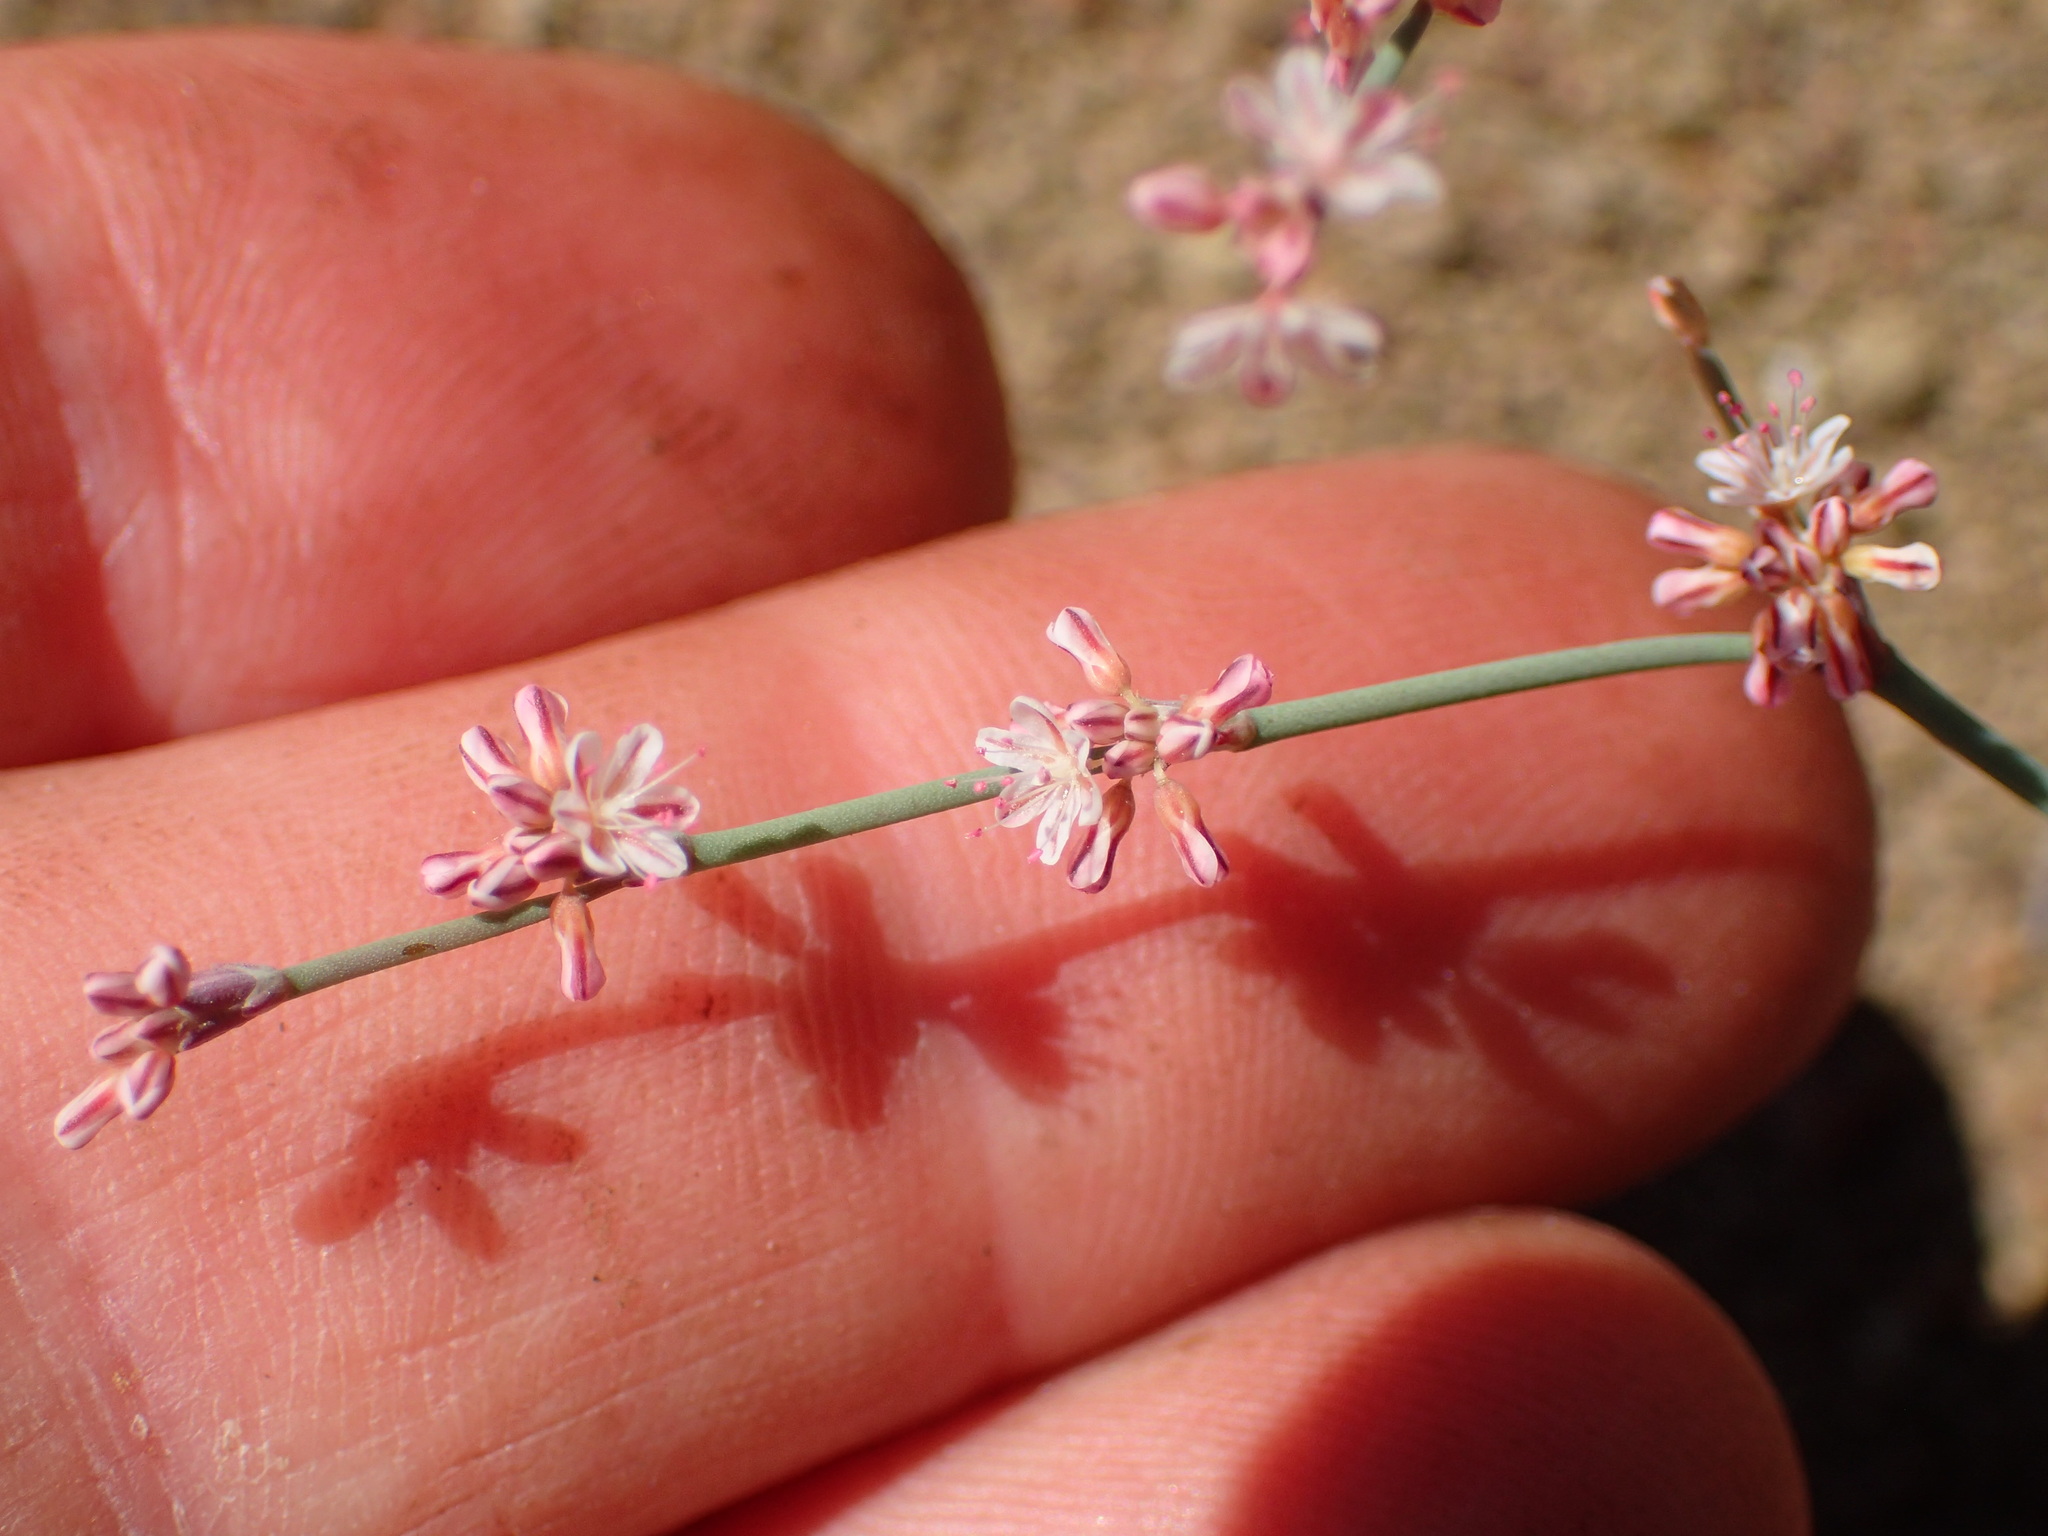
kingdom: Plantae
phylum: Tracheophyta
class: Magnoliopsida
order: Caryophyllales
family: Polygonaceae
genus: Eriogonum
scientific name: Eriogonum cithariforme
